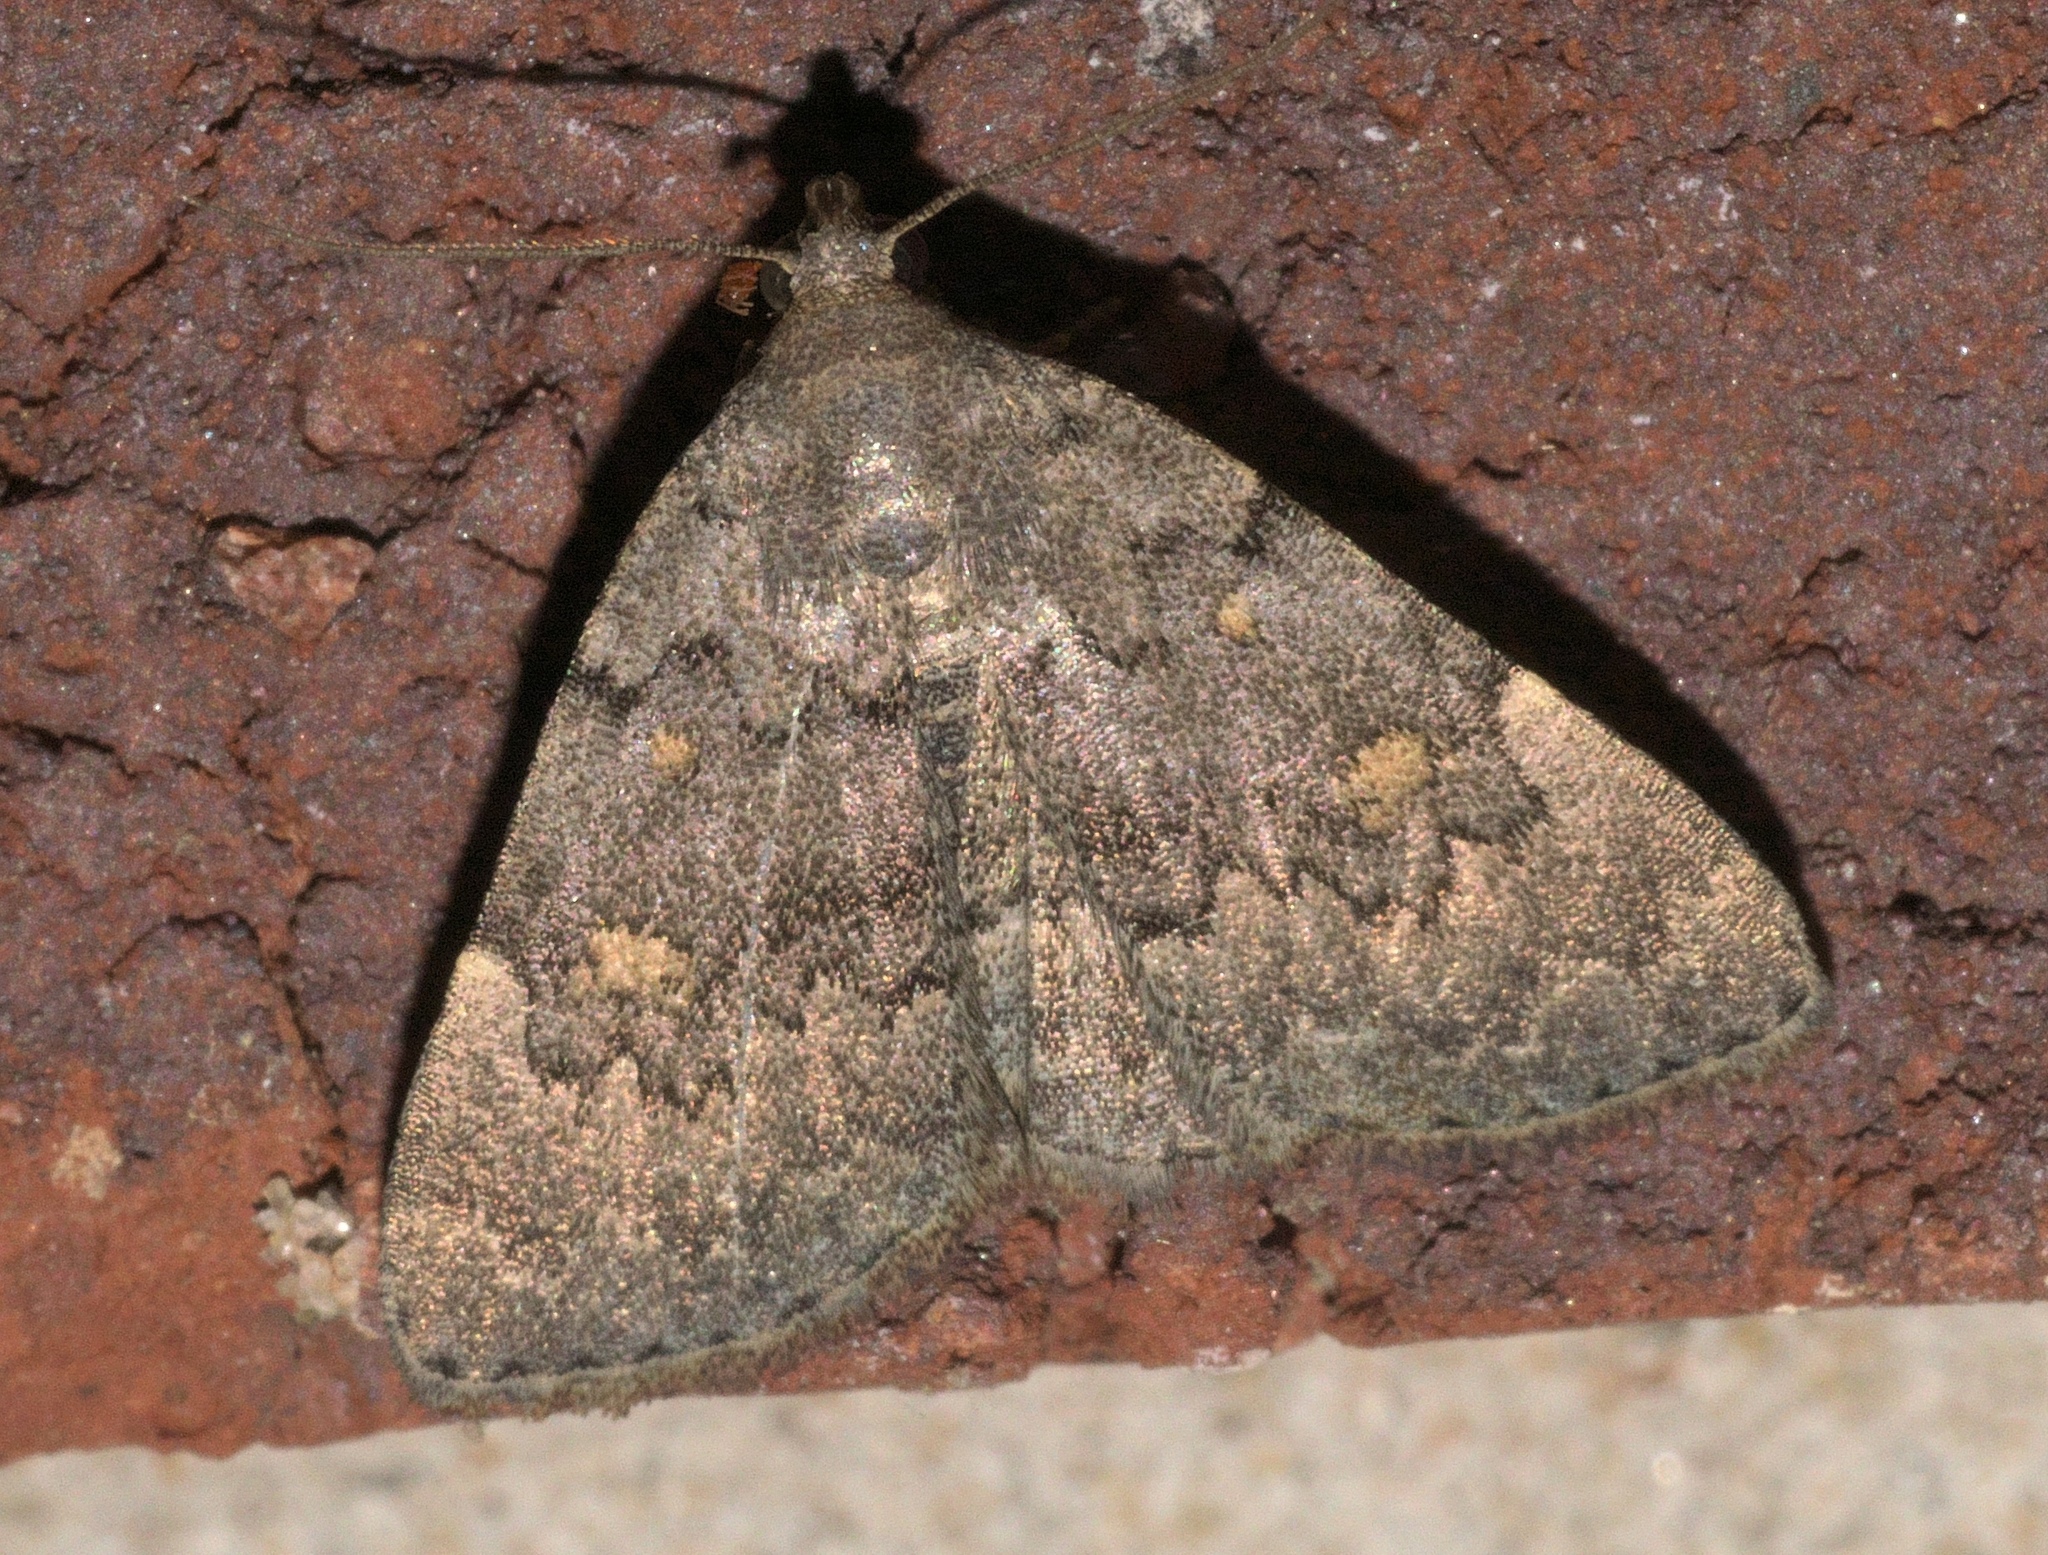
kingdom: Animalia
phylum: Arthropoda
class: Insecta
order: Lepidoptera
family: Erebidae
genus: Idia
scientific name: Idia aemula
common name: Common idia moth
